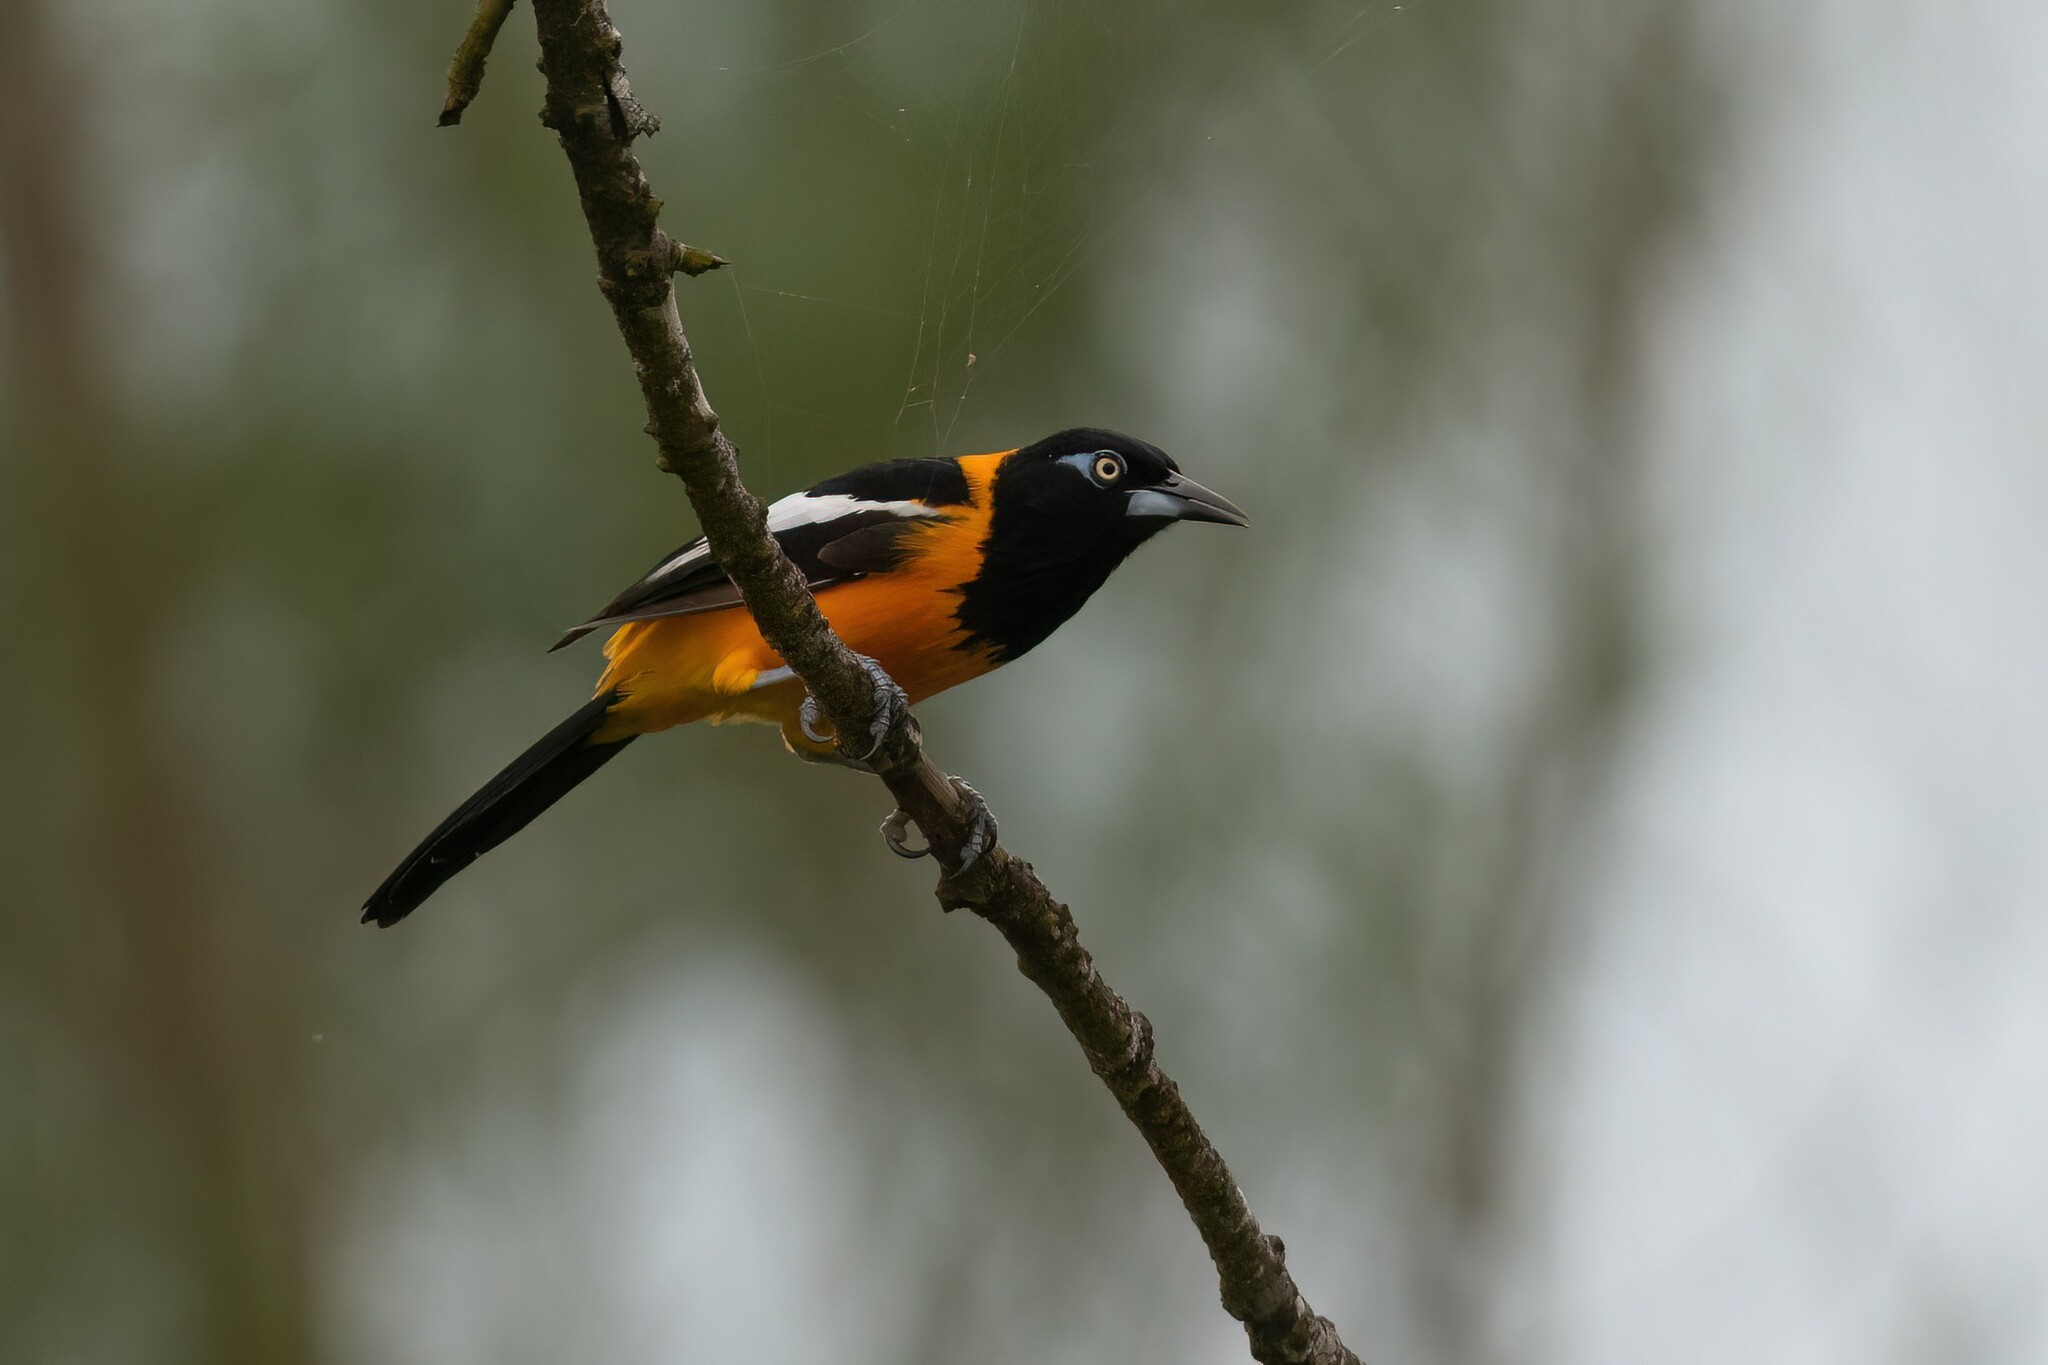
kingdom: Animalia
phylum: Chordata
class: Aves
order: Passeriformes
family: Icteridae
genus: Icterus
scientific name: Icterus icterus
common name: Venezuelan troupial
